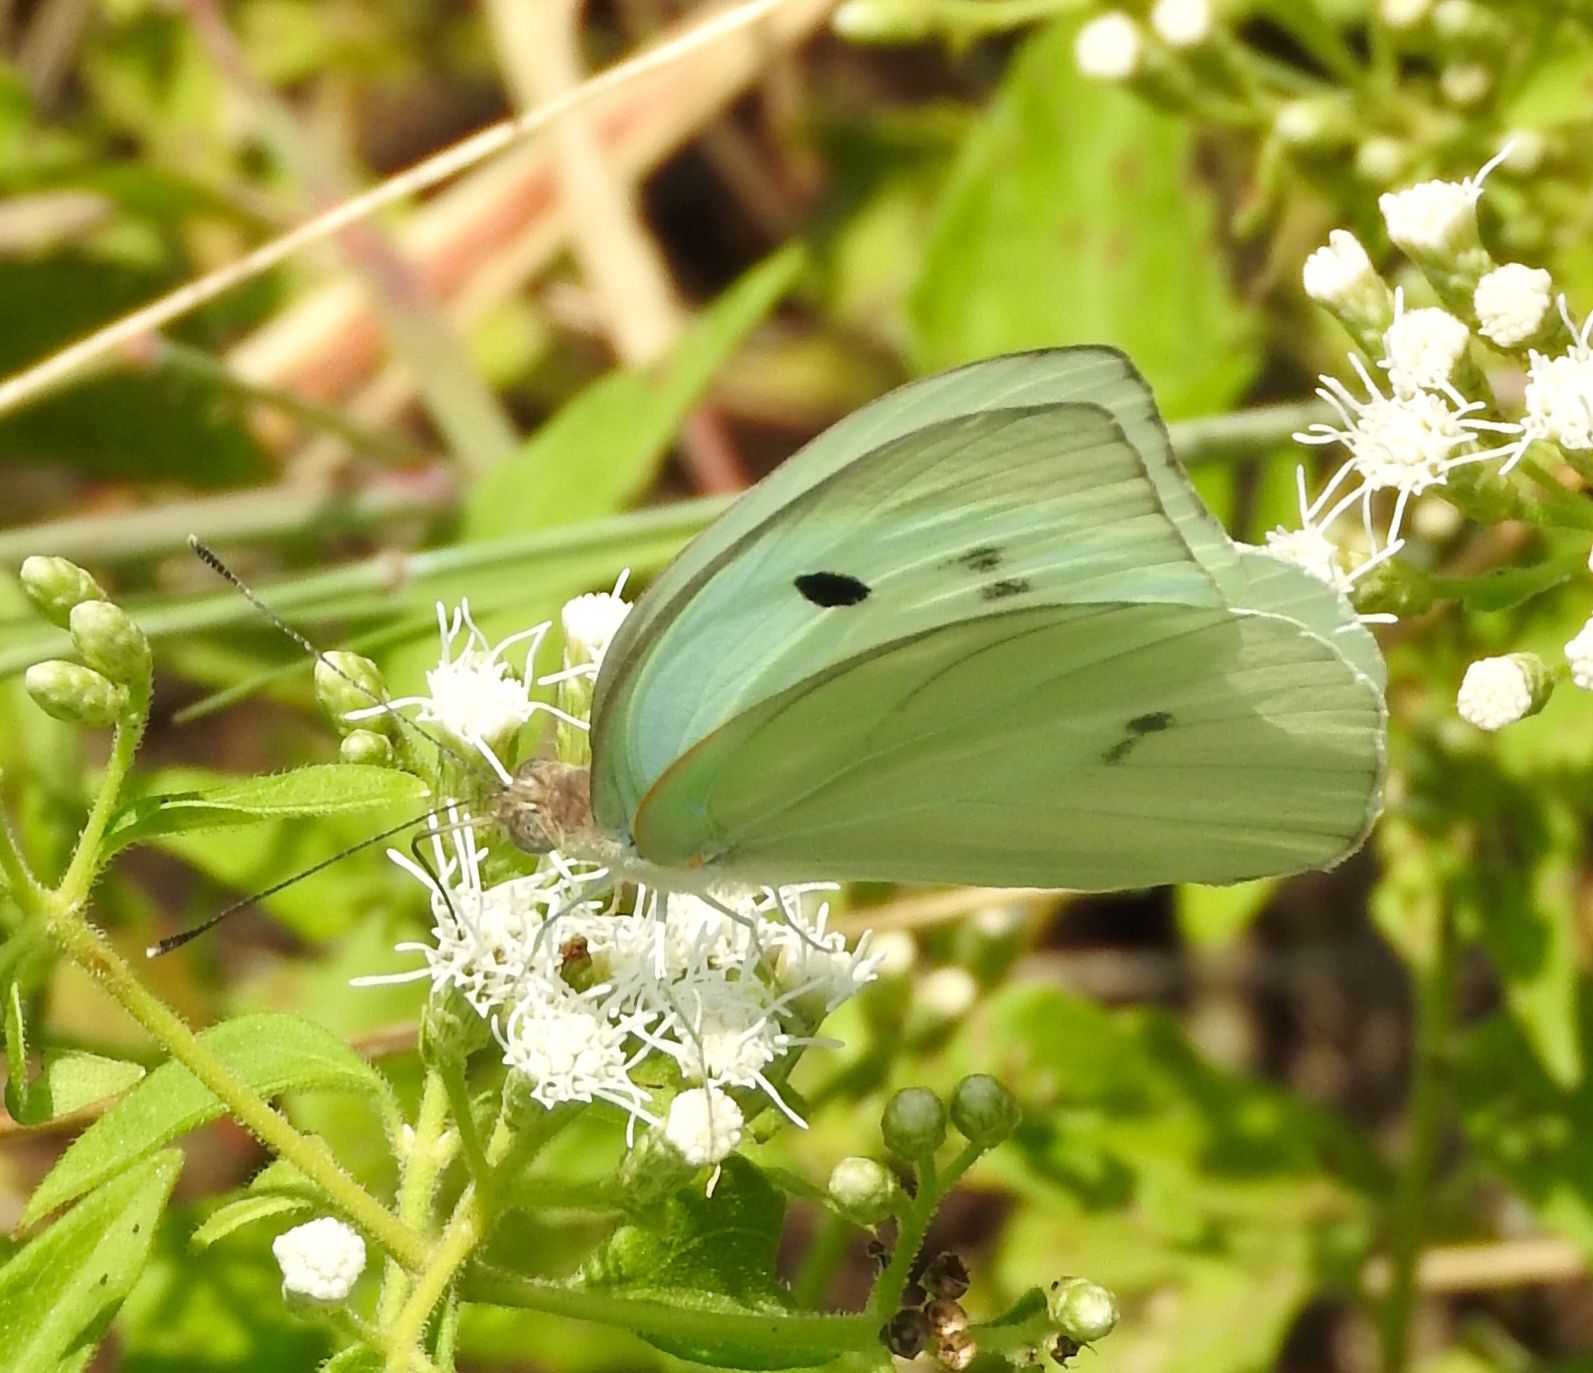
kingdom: Animalia
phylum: Arthropoda
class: Insecta
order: Lepidoptera
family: Pieridae
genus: Ganyra
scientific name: Ganyra josephina
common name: Giant white
